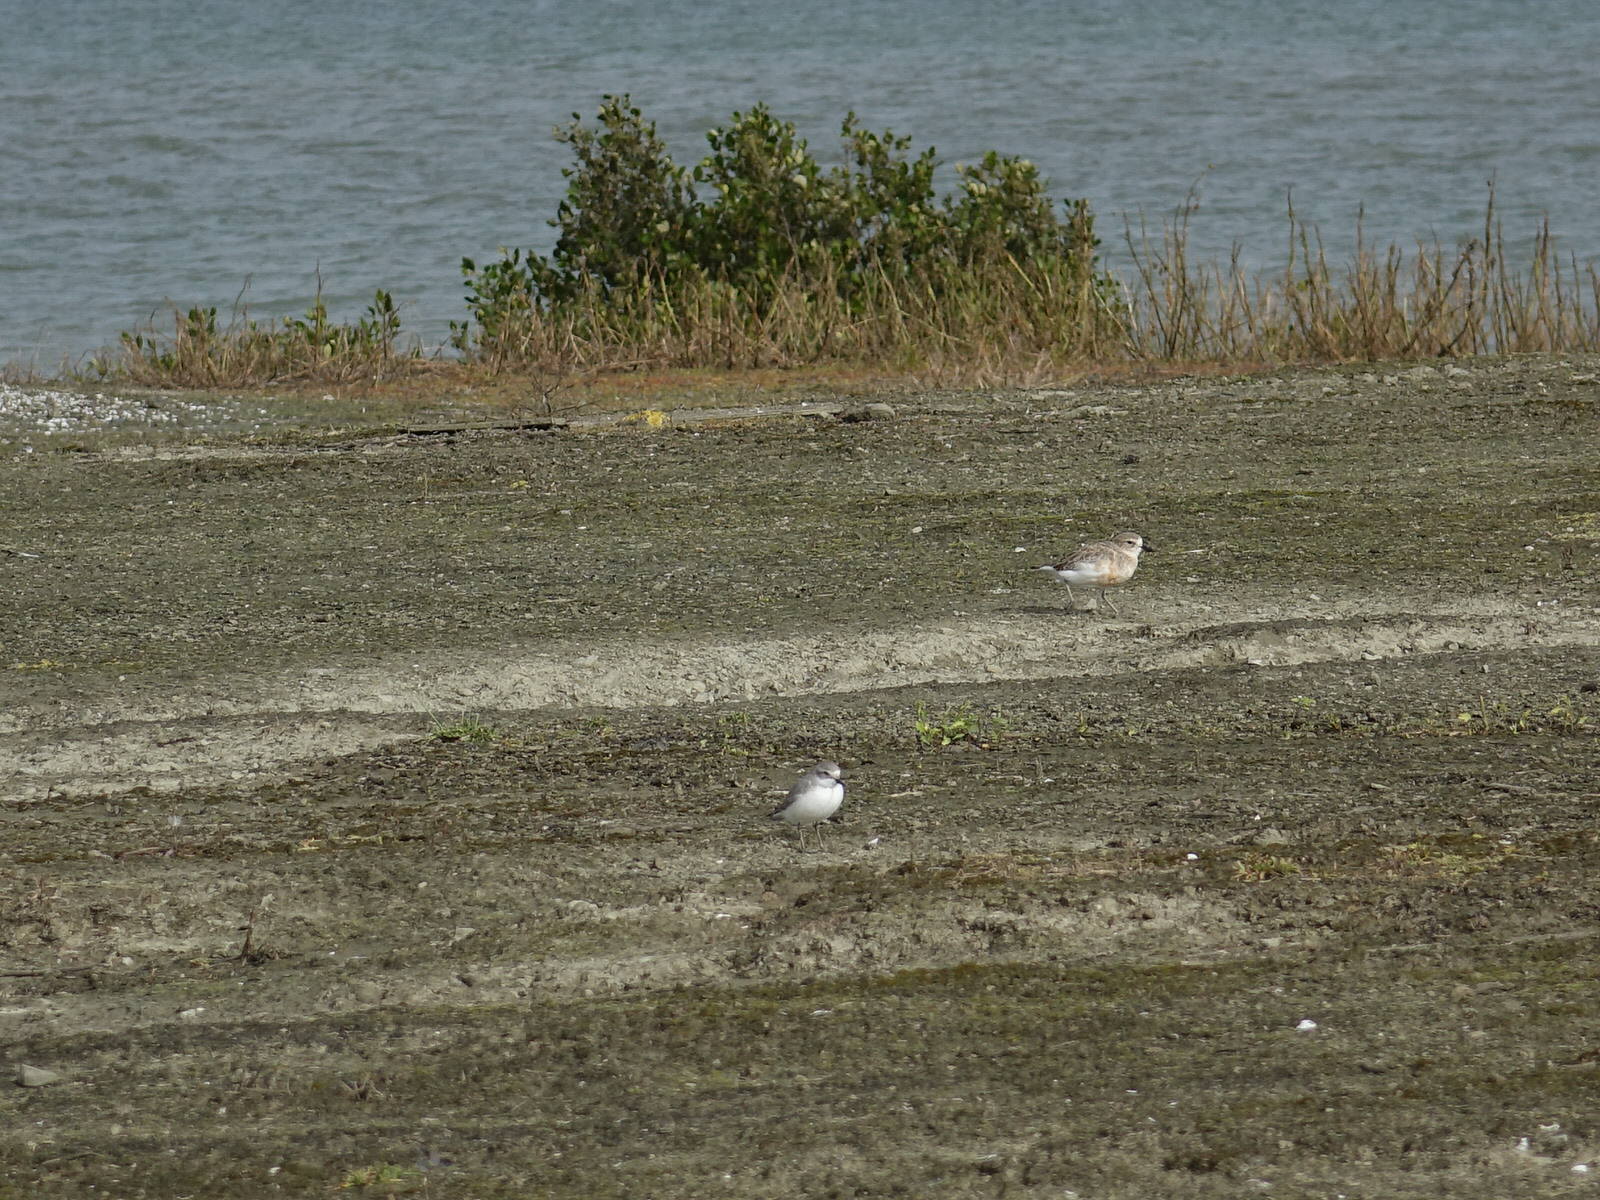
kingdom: Animalia
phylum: Chordata
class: Aves
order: Charadriiformes
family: Charadriidae
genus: Anarhynchus
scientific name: Anarhynchus frontalis
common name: Wrybill
